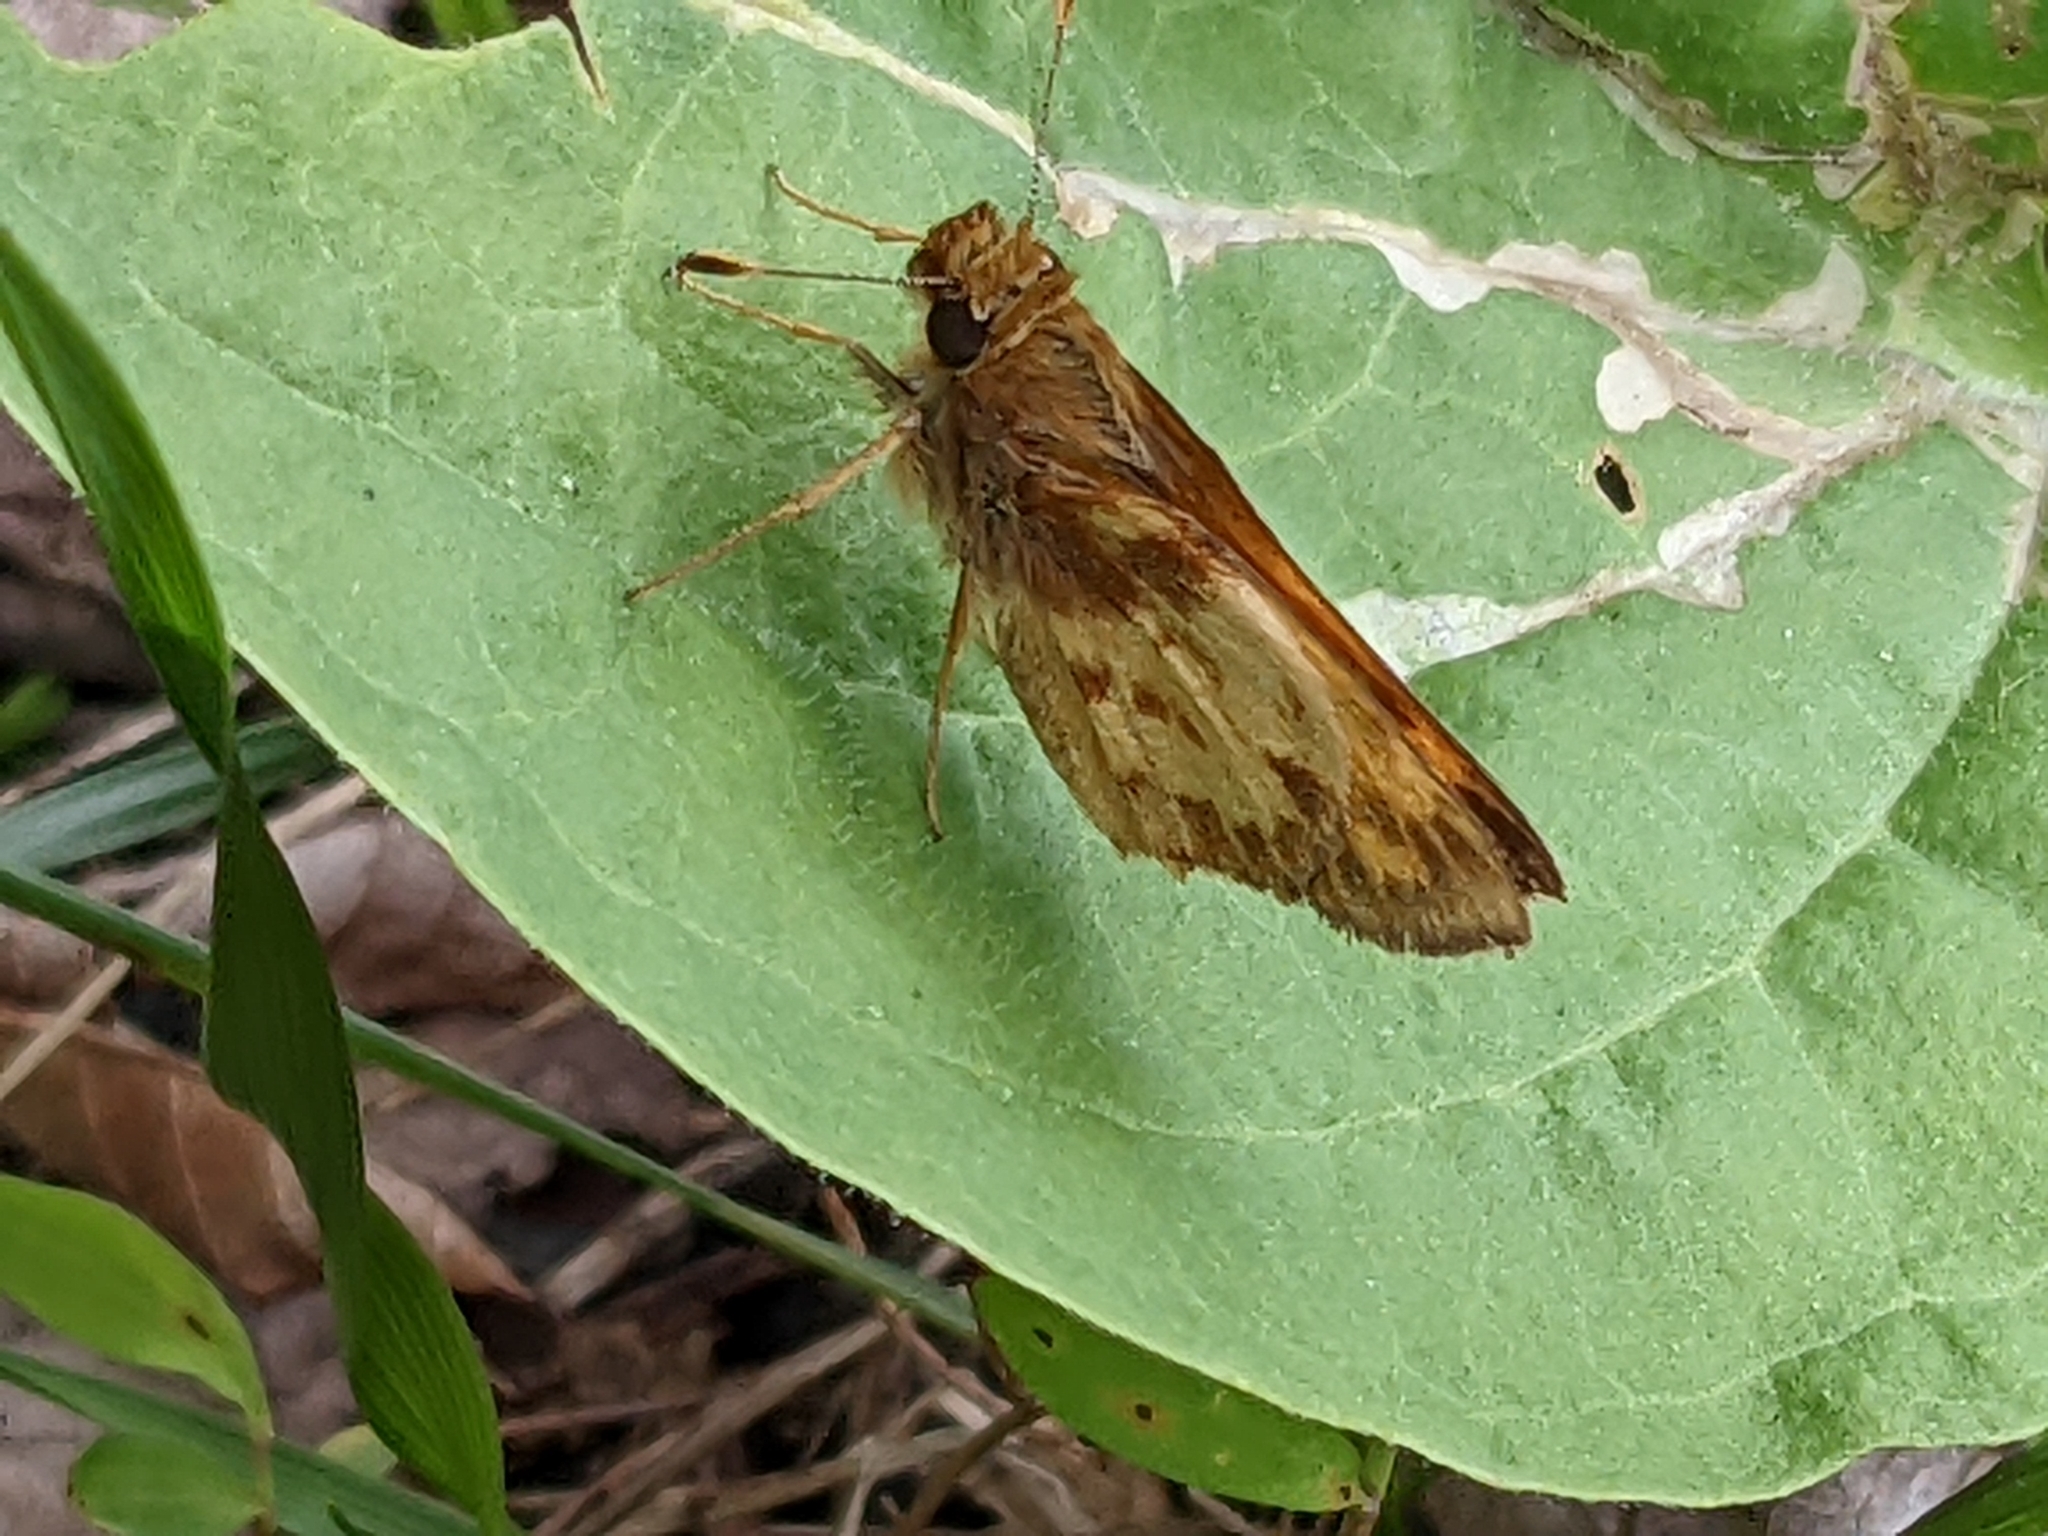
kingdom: Animalia
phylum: Arthropoda
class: Insecta
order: Lepidoptera
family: Hesperiidae
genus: Lon
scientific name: Lon zabulon
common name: Zabulon skipper
